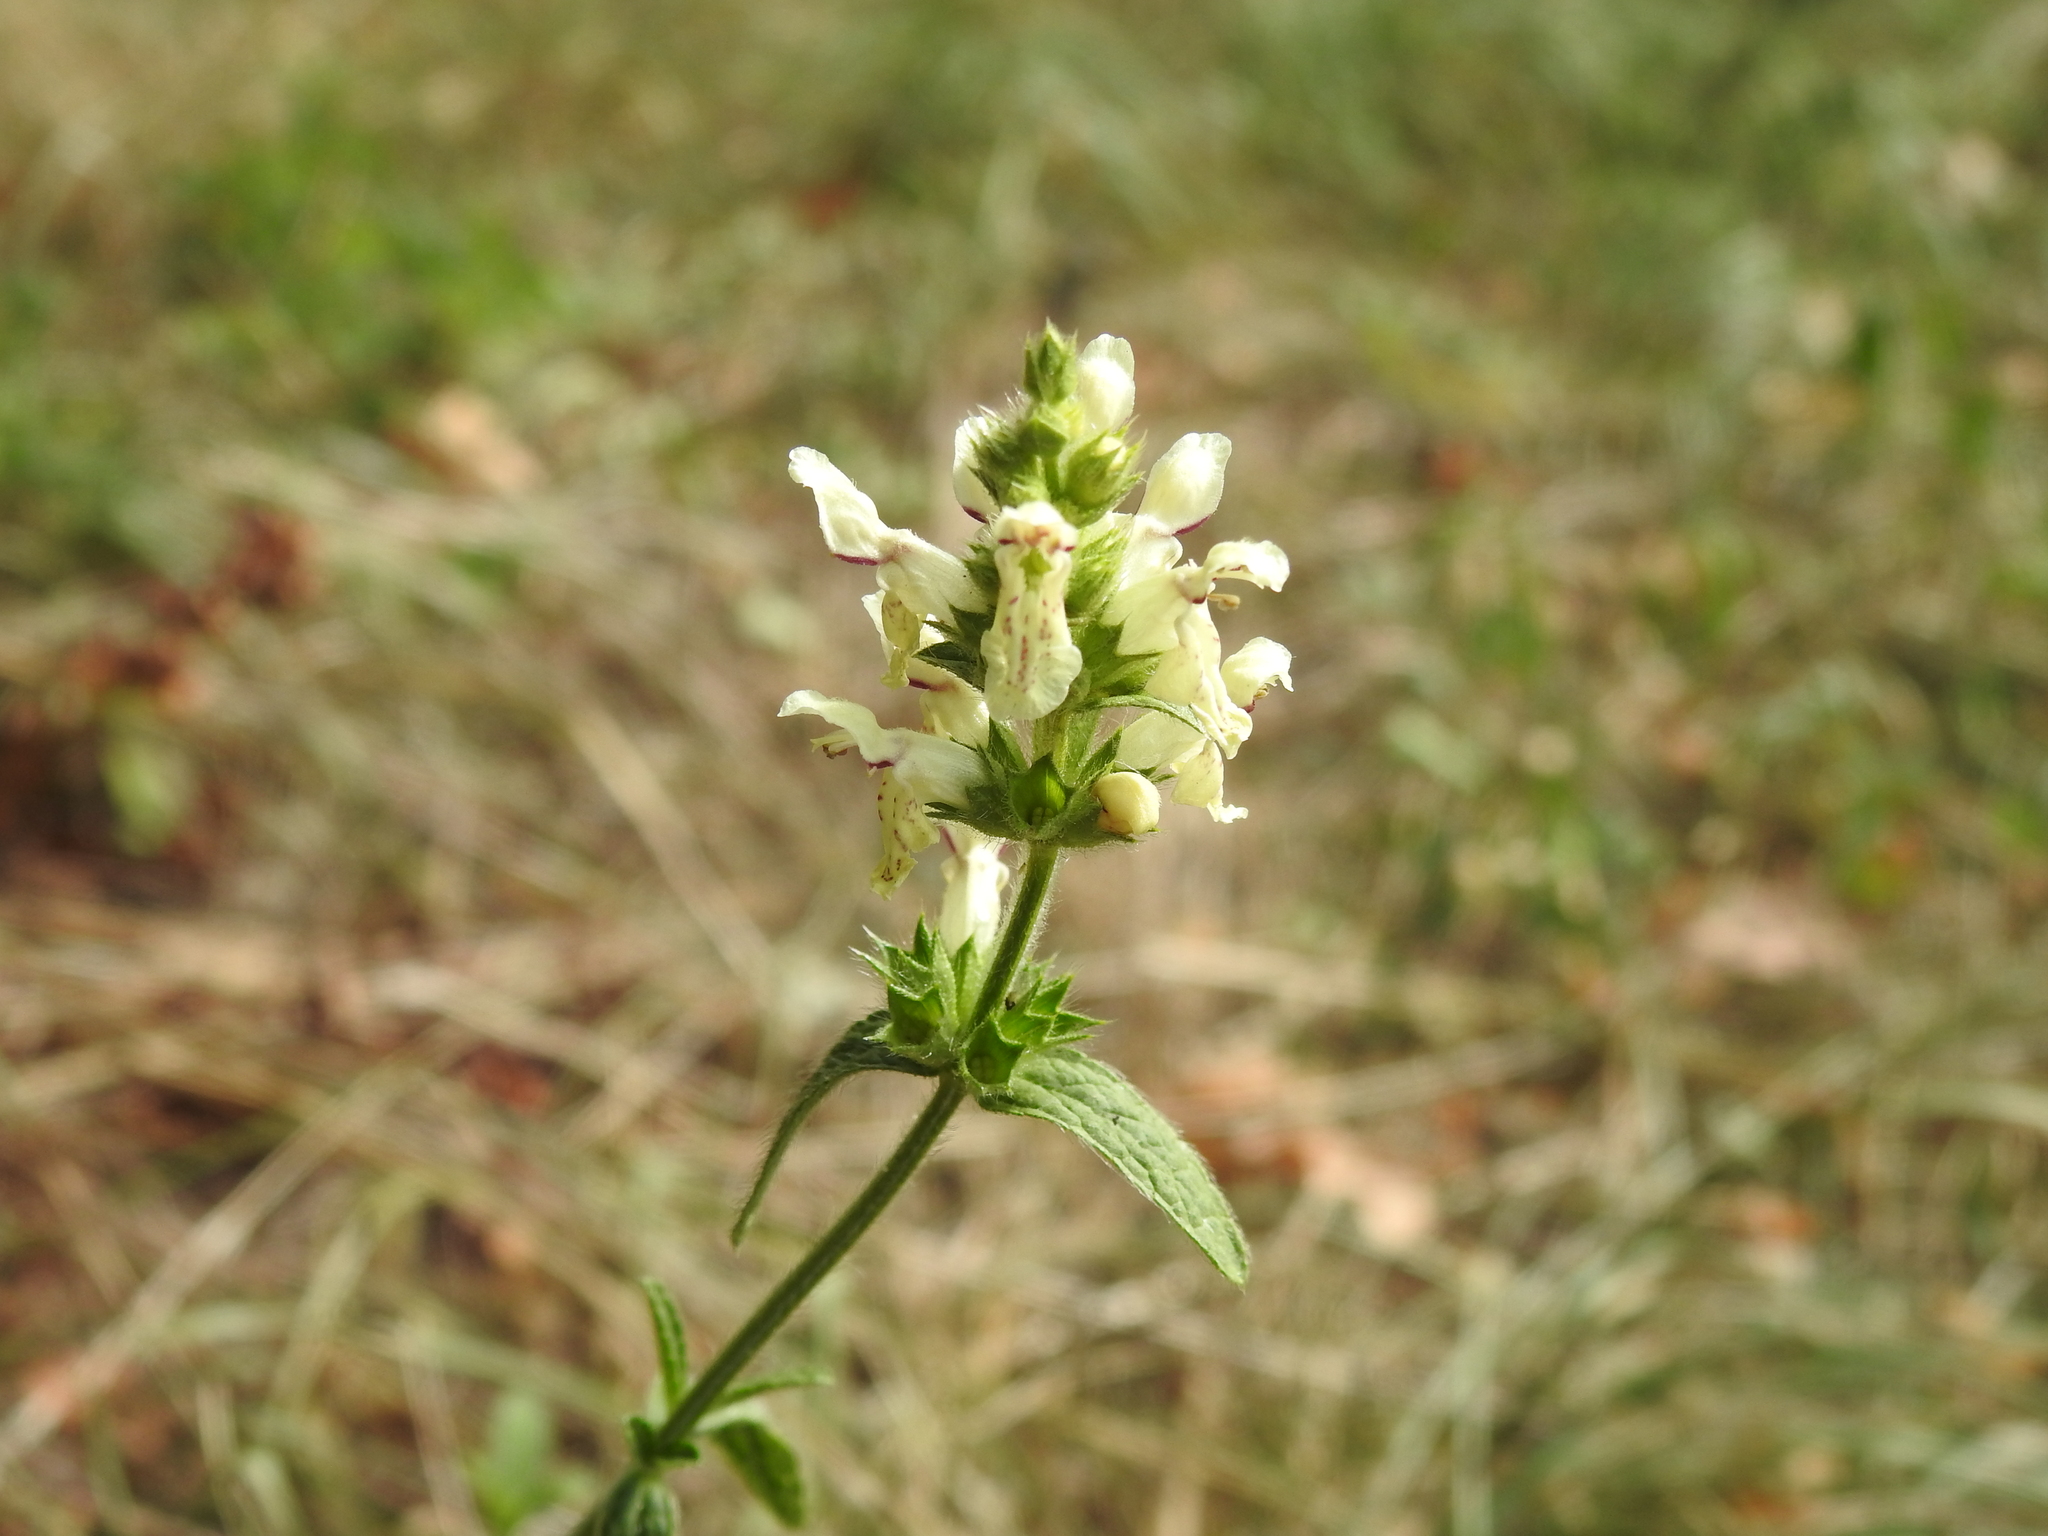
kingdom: Plantae
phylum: Tracheophyta
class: Magnoliopsida
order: Lamiales
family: Lamiaceae
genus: Stachys
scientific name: Stachys recta
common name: Perennial yellow-woundwort
